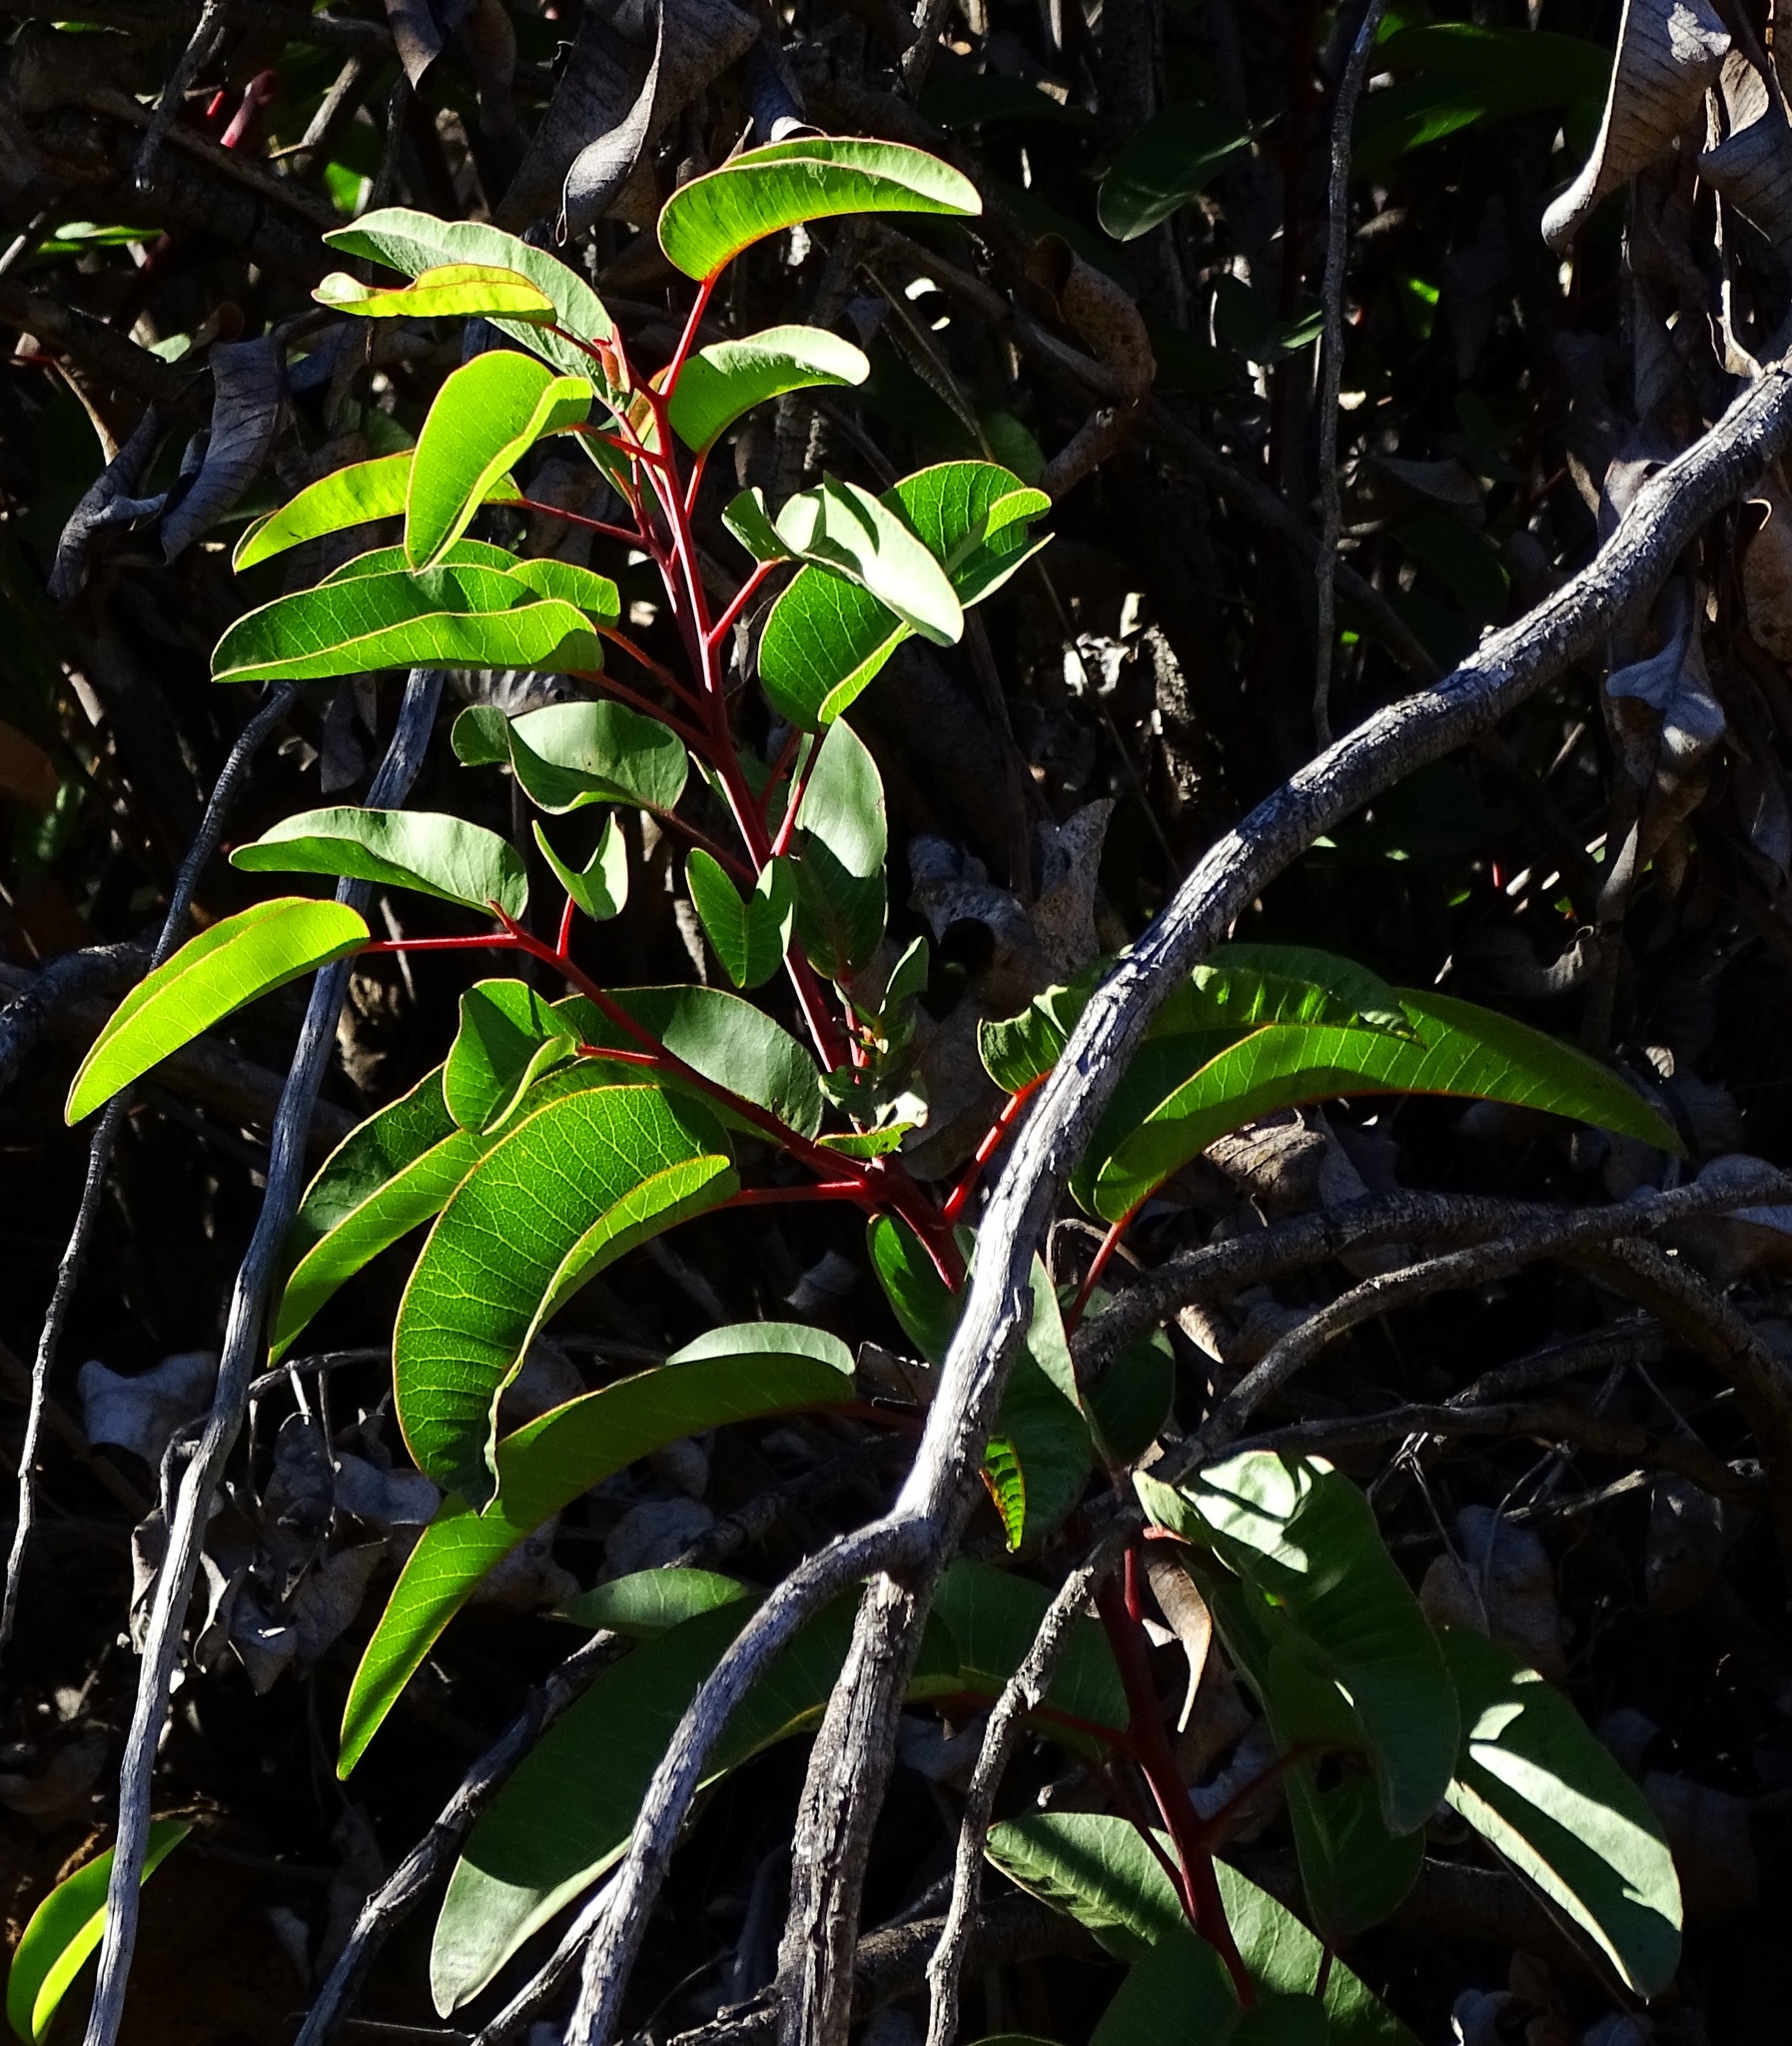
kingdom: Plantae
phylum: Tracheophyta
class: Magnoliopsida
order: Sapindales
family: Anacardiaceae
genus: Malosma
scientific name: Malosma laurina
